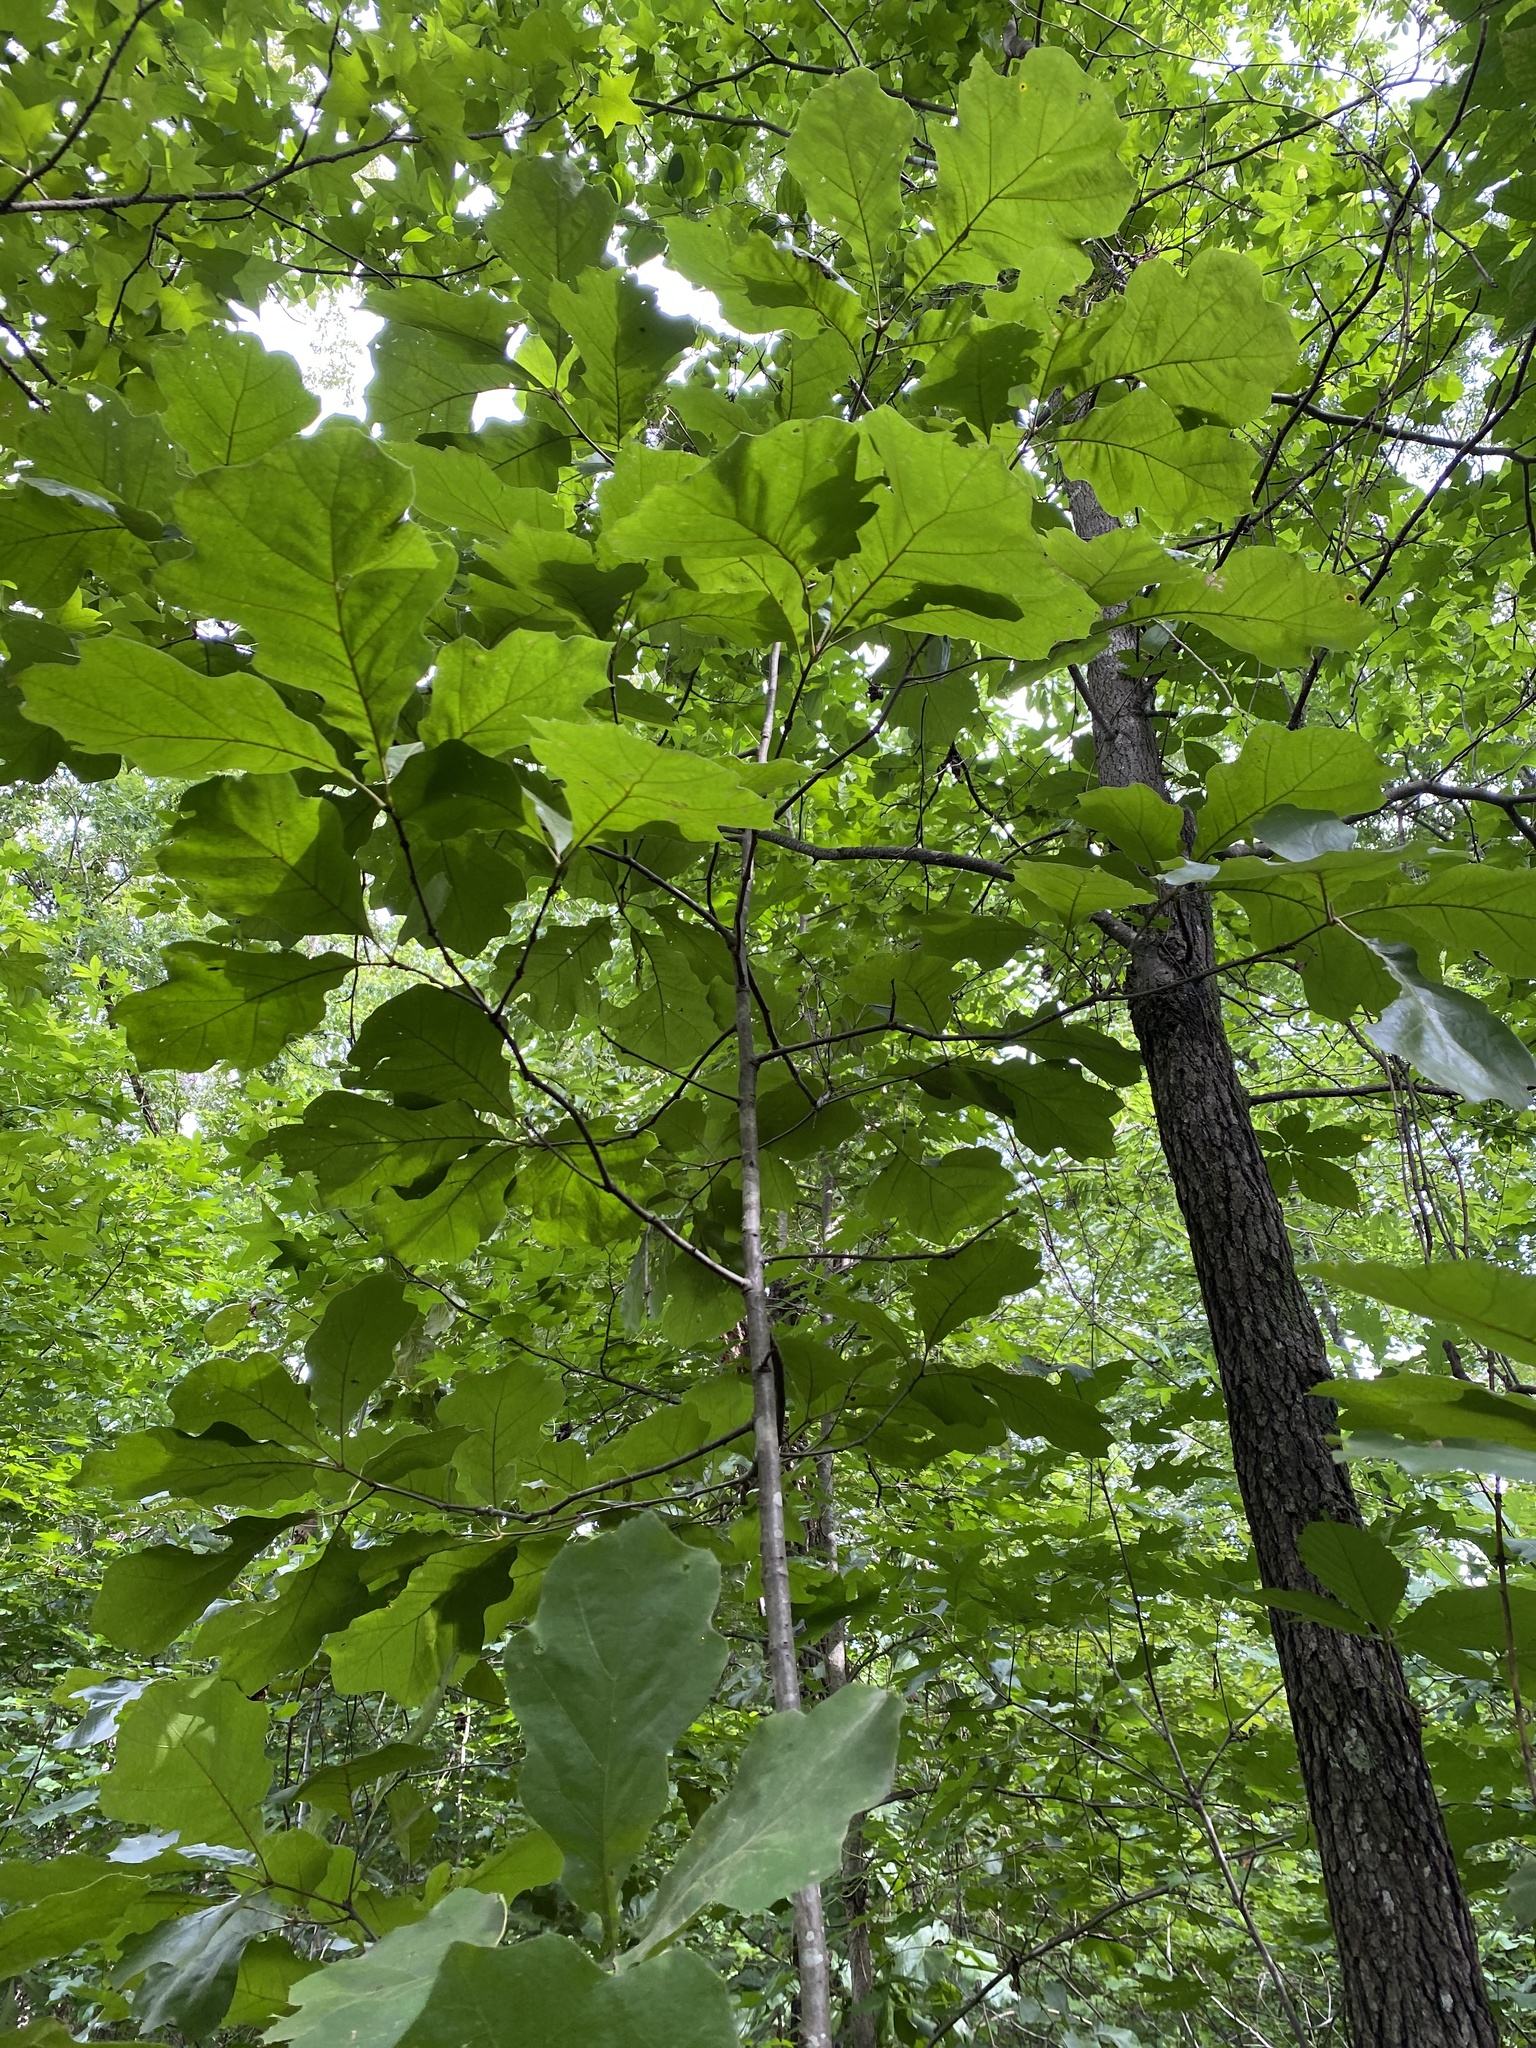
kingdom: Plantae
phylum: Tracheophyta
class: Magnoliopsida
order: Fagales
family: Fagaceae
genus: Quercus
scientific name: Quercus velutina
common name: Black oak
